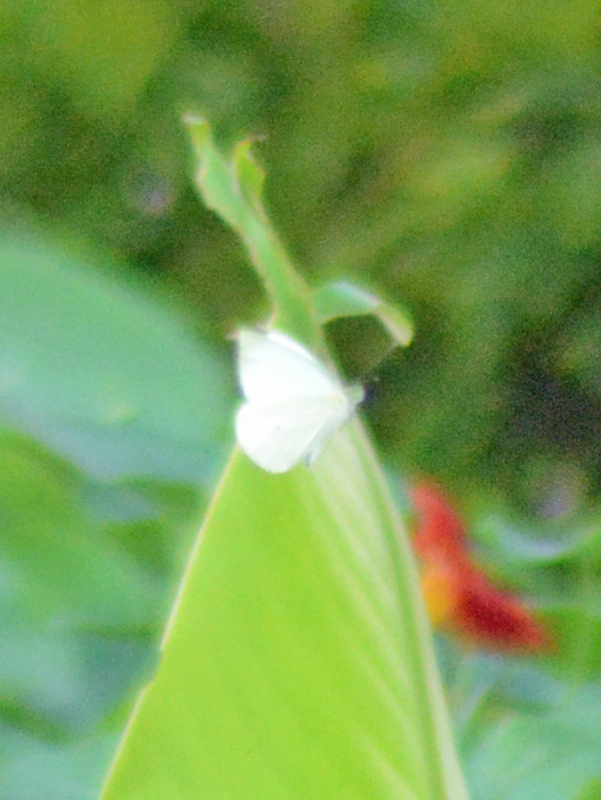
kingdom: Animalia
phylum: Arthropoda
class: Insecta
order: Lepidoptera
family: Pieridae
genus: Leptophobia
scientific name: Leptophobia aripa
